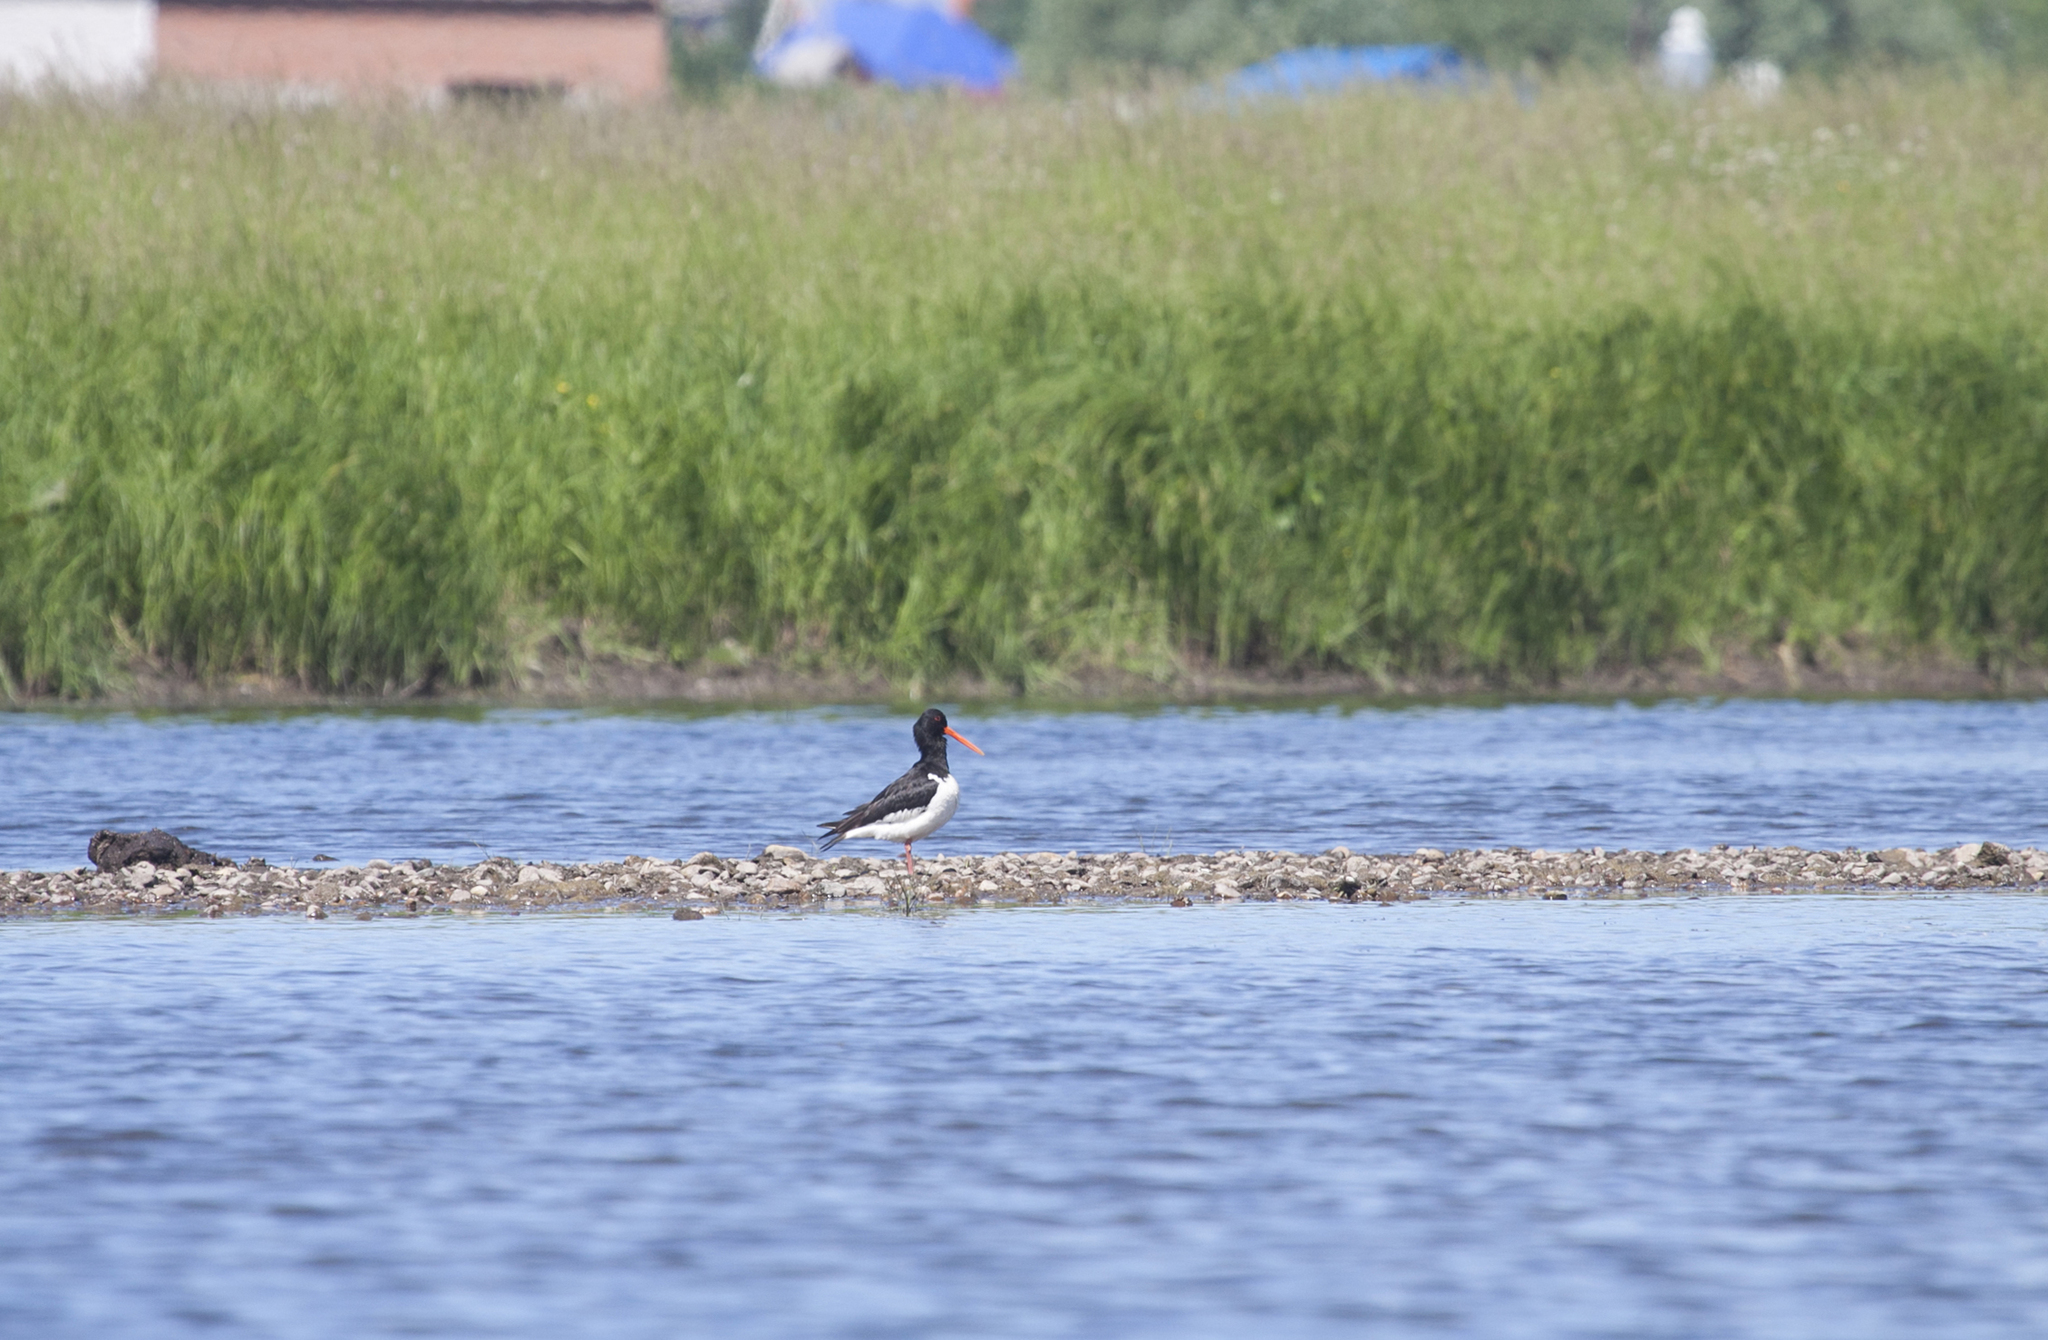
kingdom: Animalia
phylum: Chordata
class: Aves
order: Charadriiformes
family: Haematopodidae
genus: Haematopus
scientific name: Haematopus ostralegus
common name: Eurasian oystercatcher
